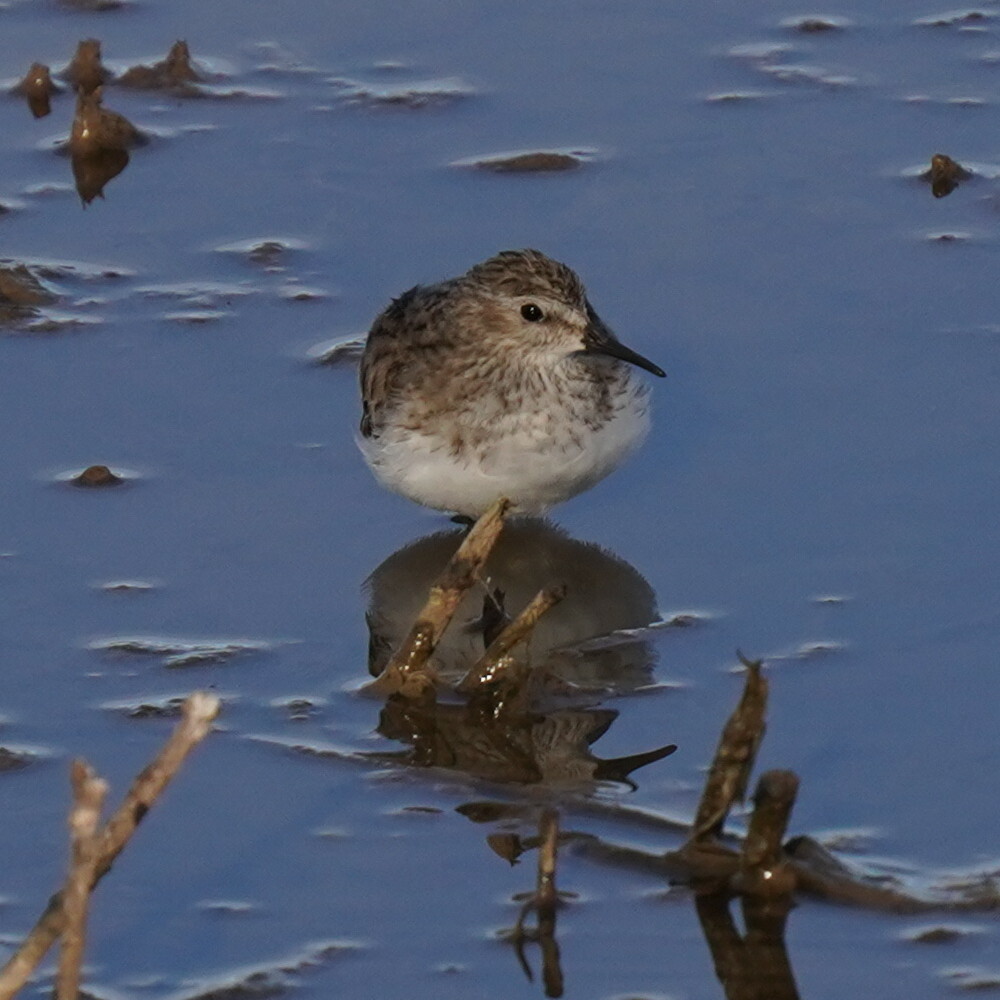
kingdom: Animalia
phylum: Chordata
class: Aves
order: Charadriiformes
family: Scolopacidae
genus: Calidris
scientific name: Calidris minutilla
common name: Least sandpiper
